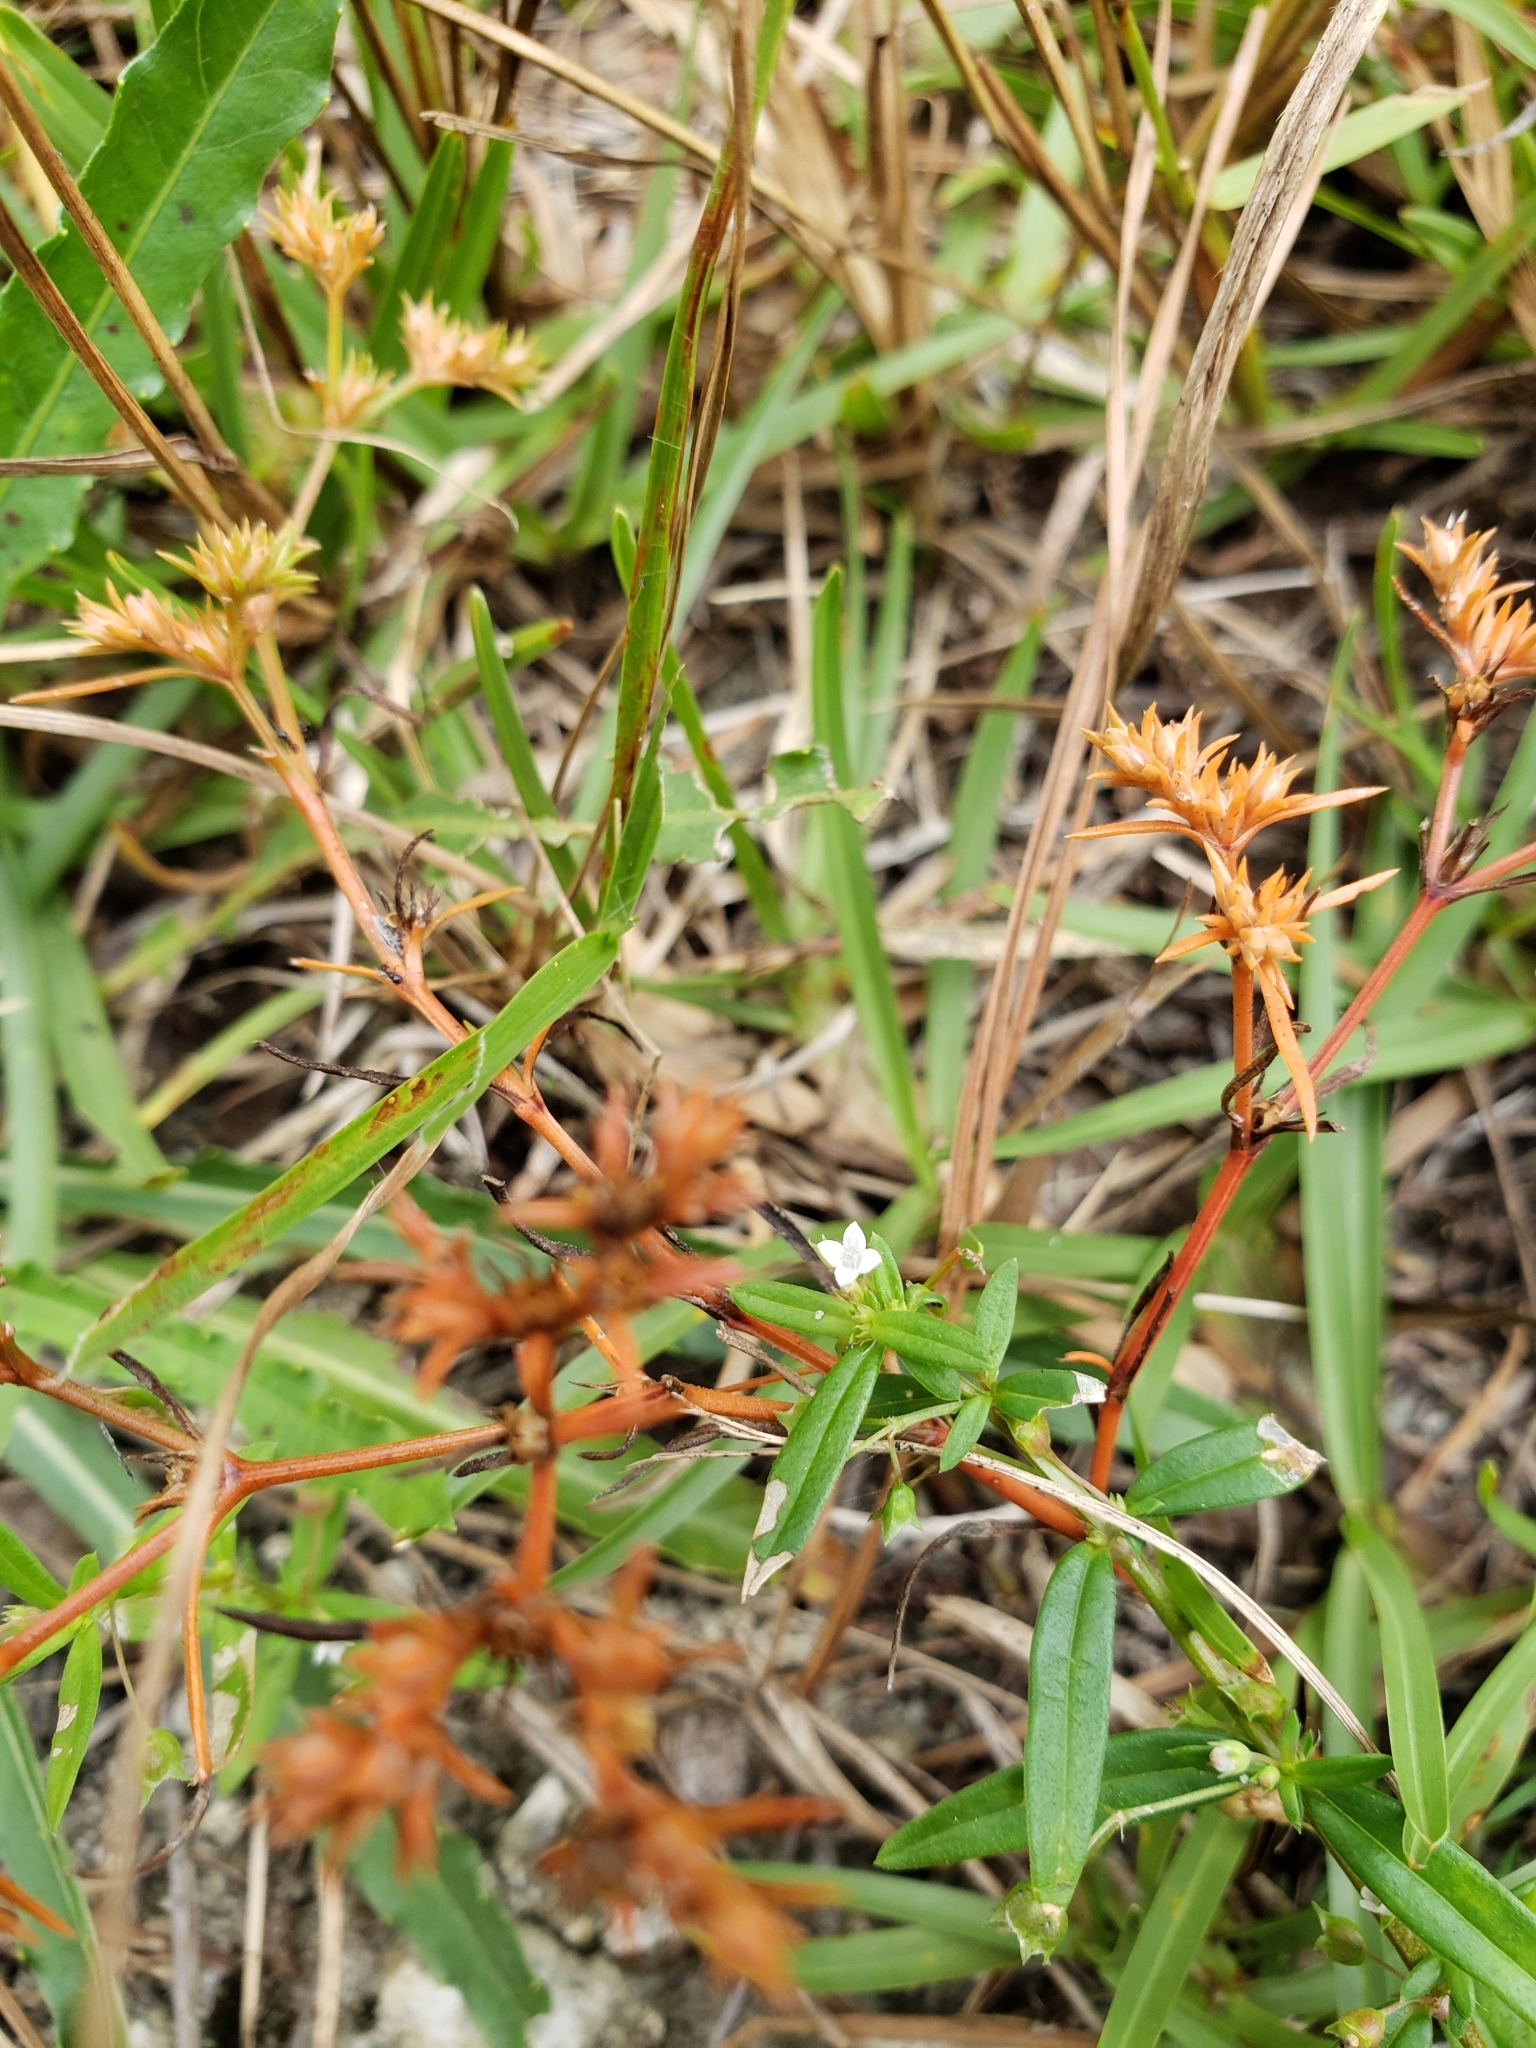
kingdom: Plantae
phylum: Tracheophyta
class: Magnoliopsida
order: Lamiales
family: Tetrachondraceae
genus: Polypremum
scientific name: Polypremum procumbens
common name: Juniper-leaf
